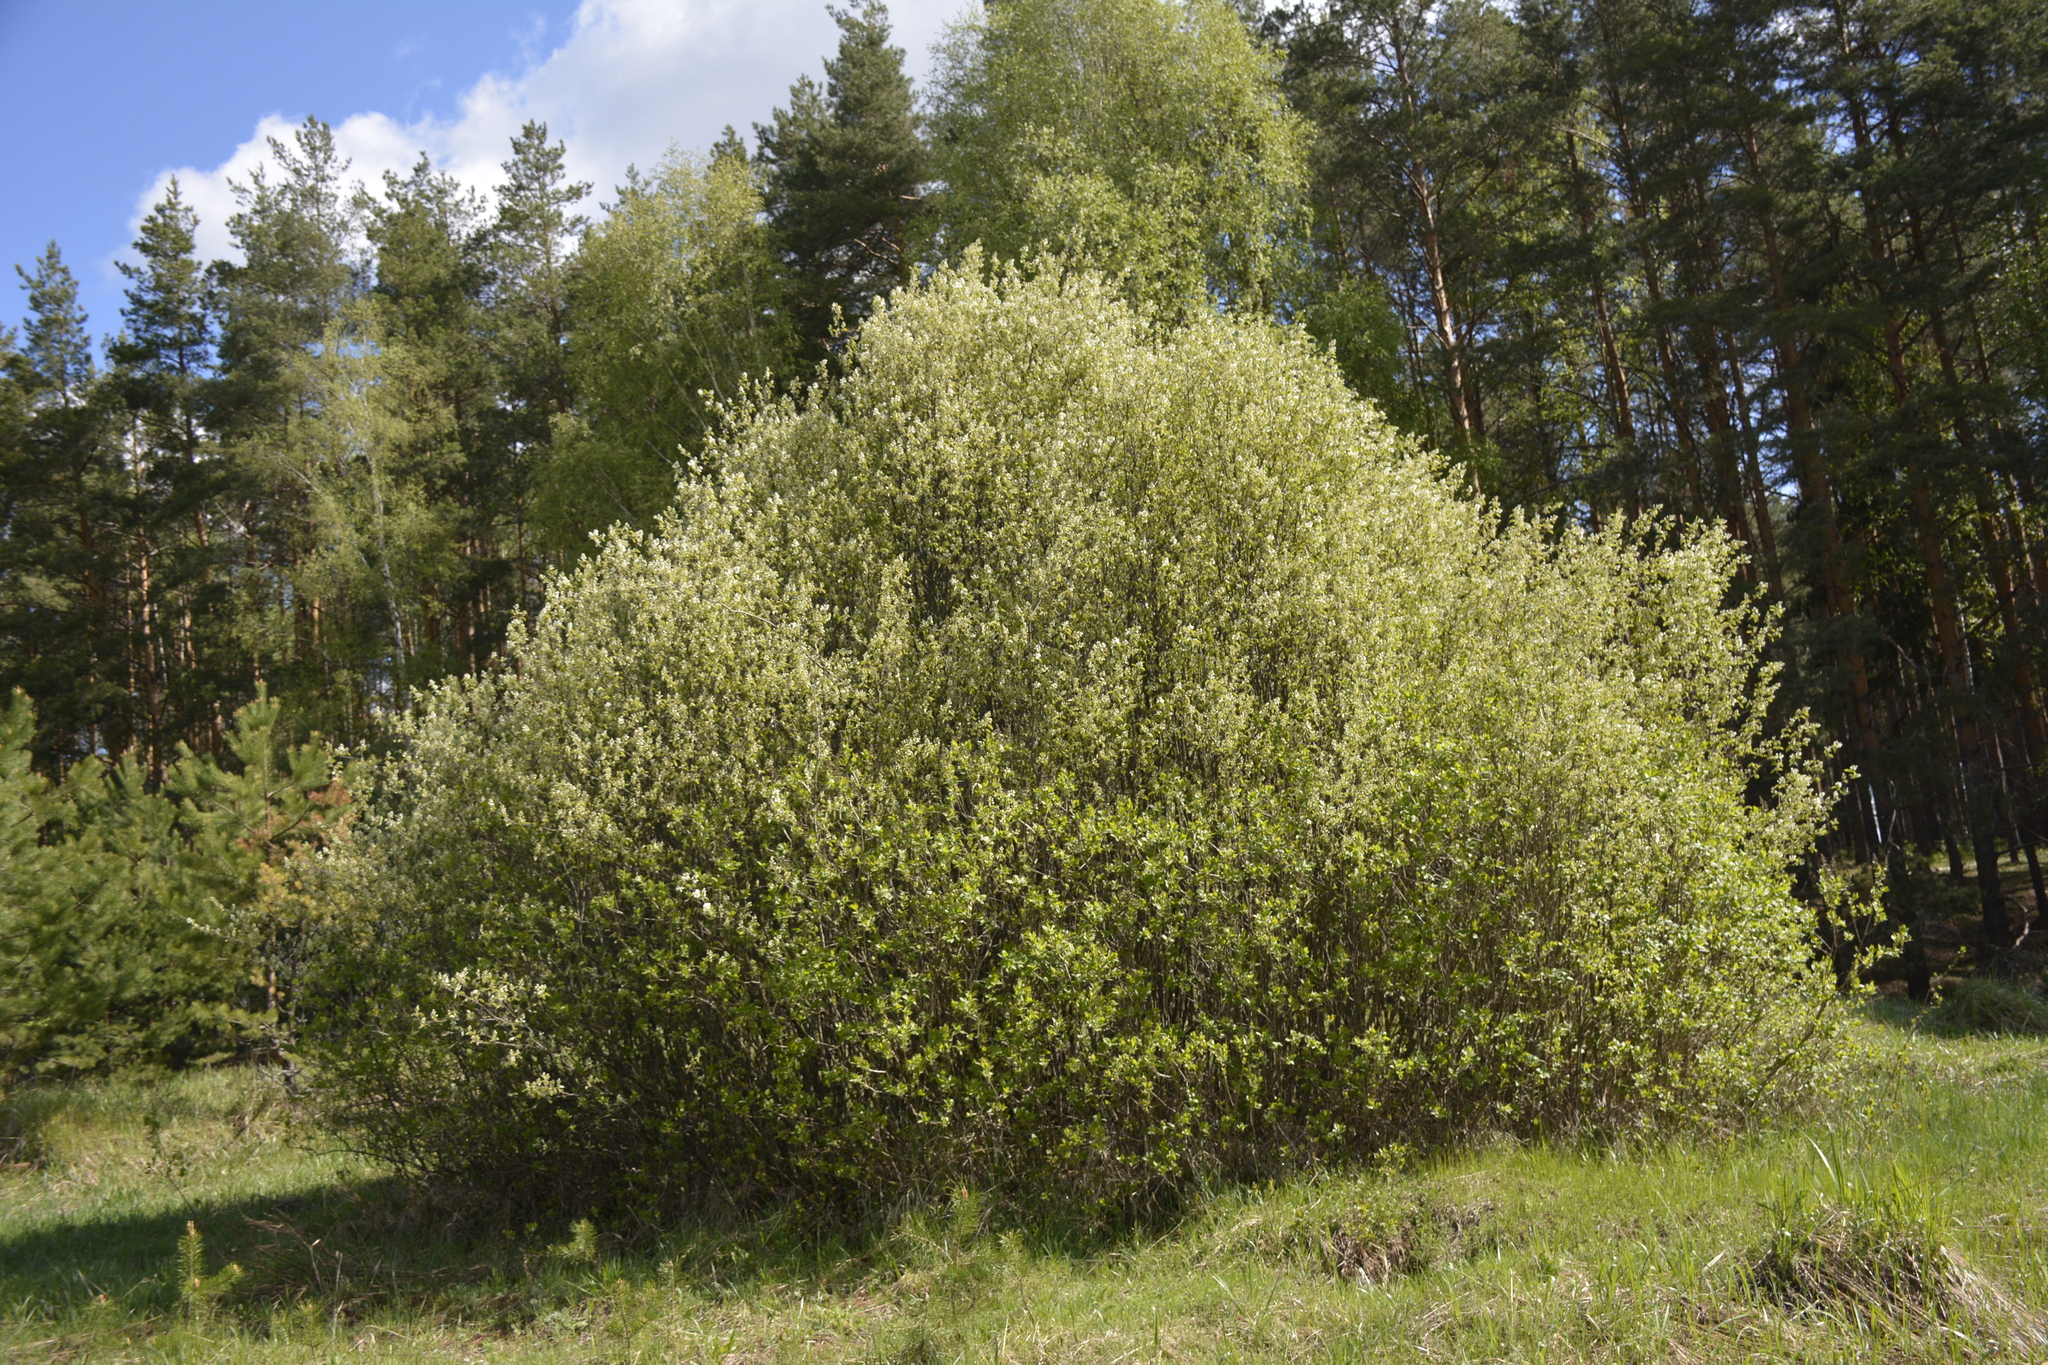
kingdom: Plantae
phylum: Tracheophyta
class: Magnoliopsida
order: Rosales
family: Rosaceae
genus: Amelanchier
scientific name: Amelanchier
